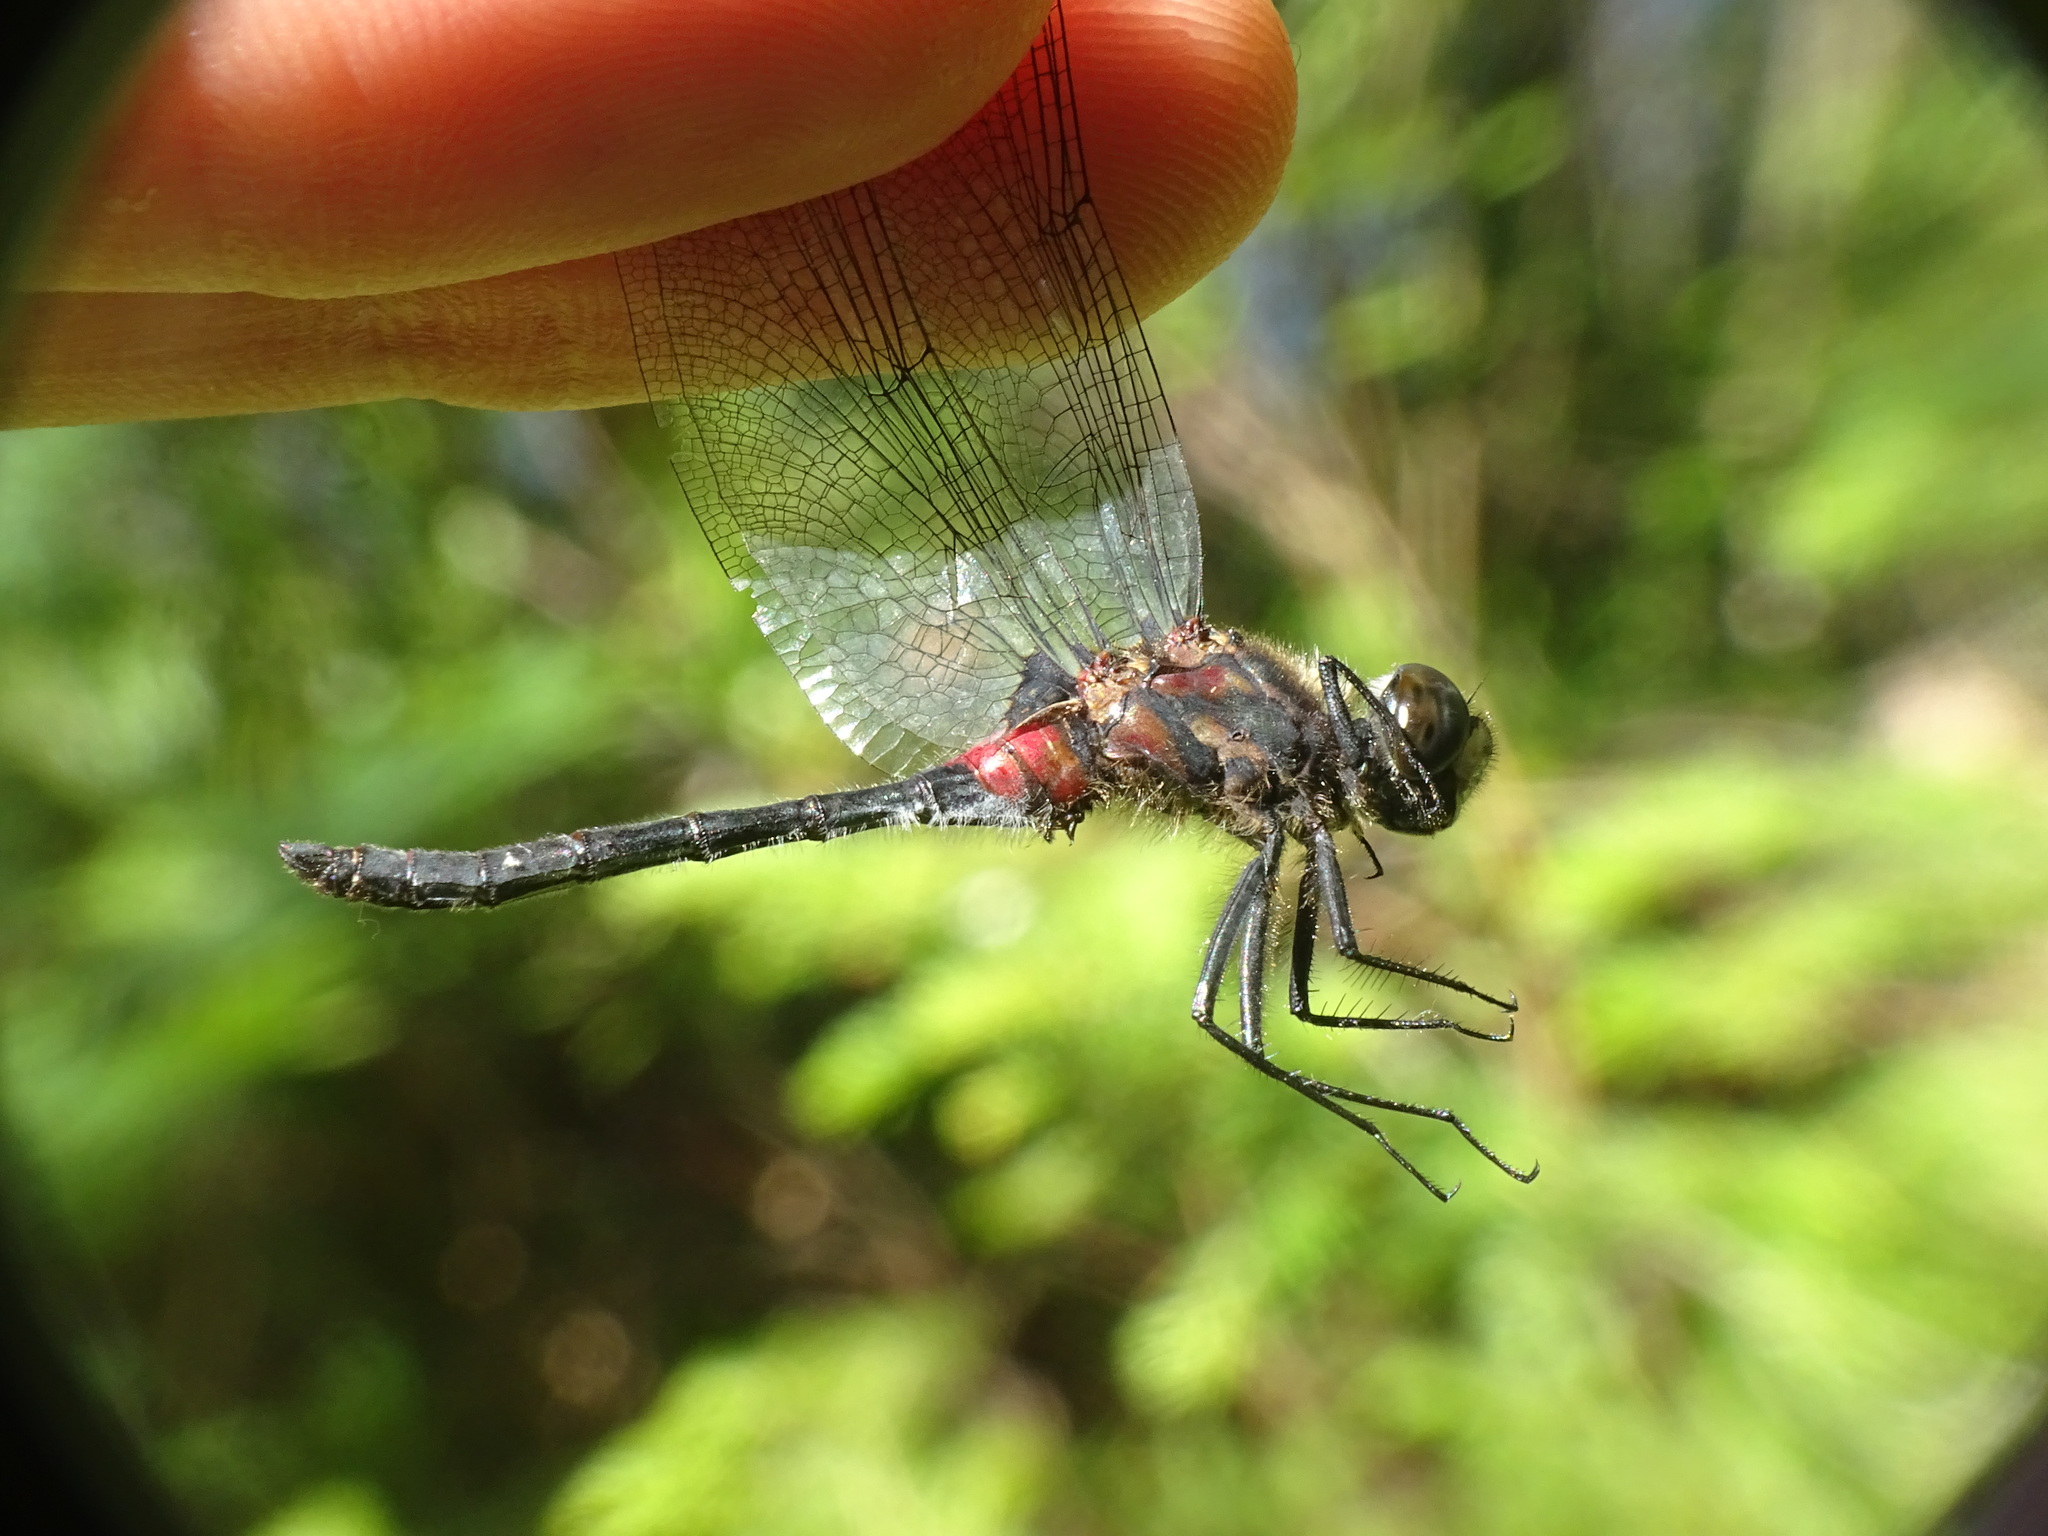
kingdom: Animalia
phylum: Arthropoda
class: Insecta
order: Odonata
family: Libellulidae
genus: Leucorrhinia
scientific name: Leucorrhinia glacialis
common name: Crimson-ringed whiteface
